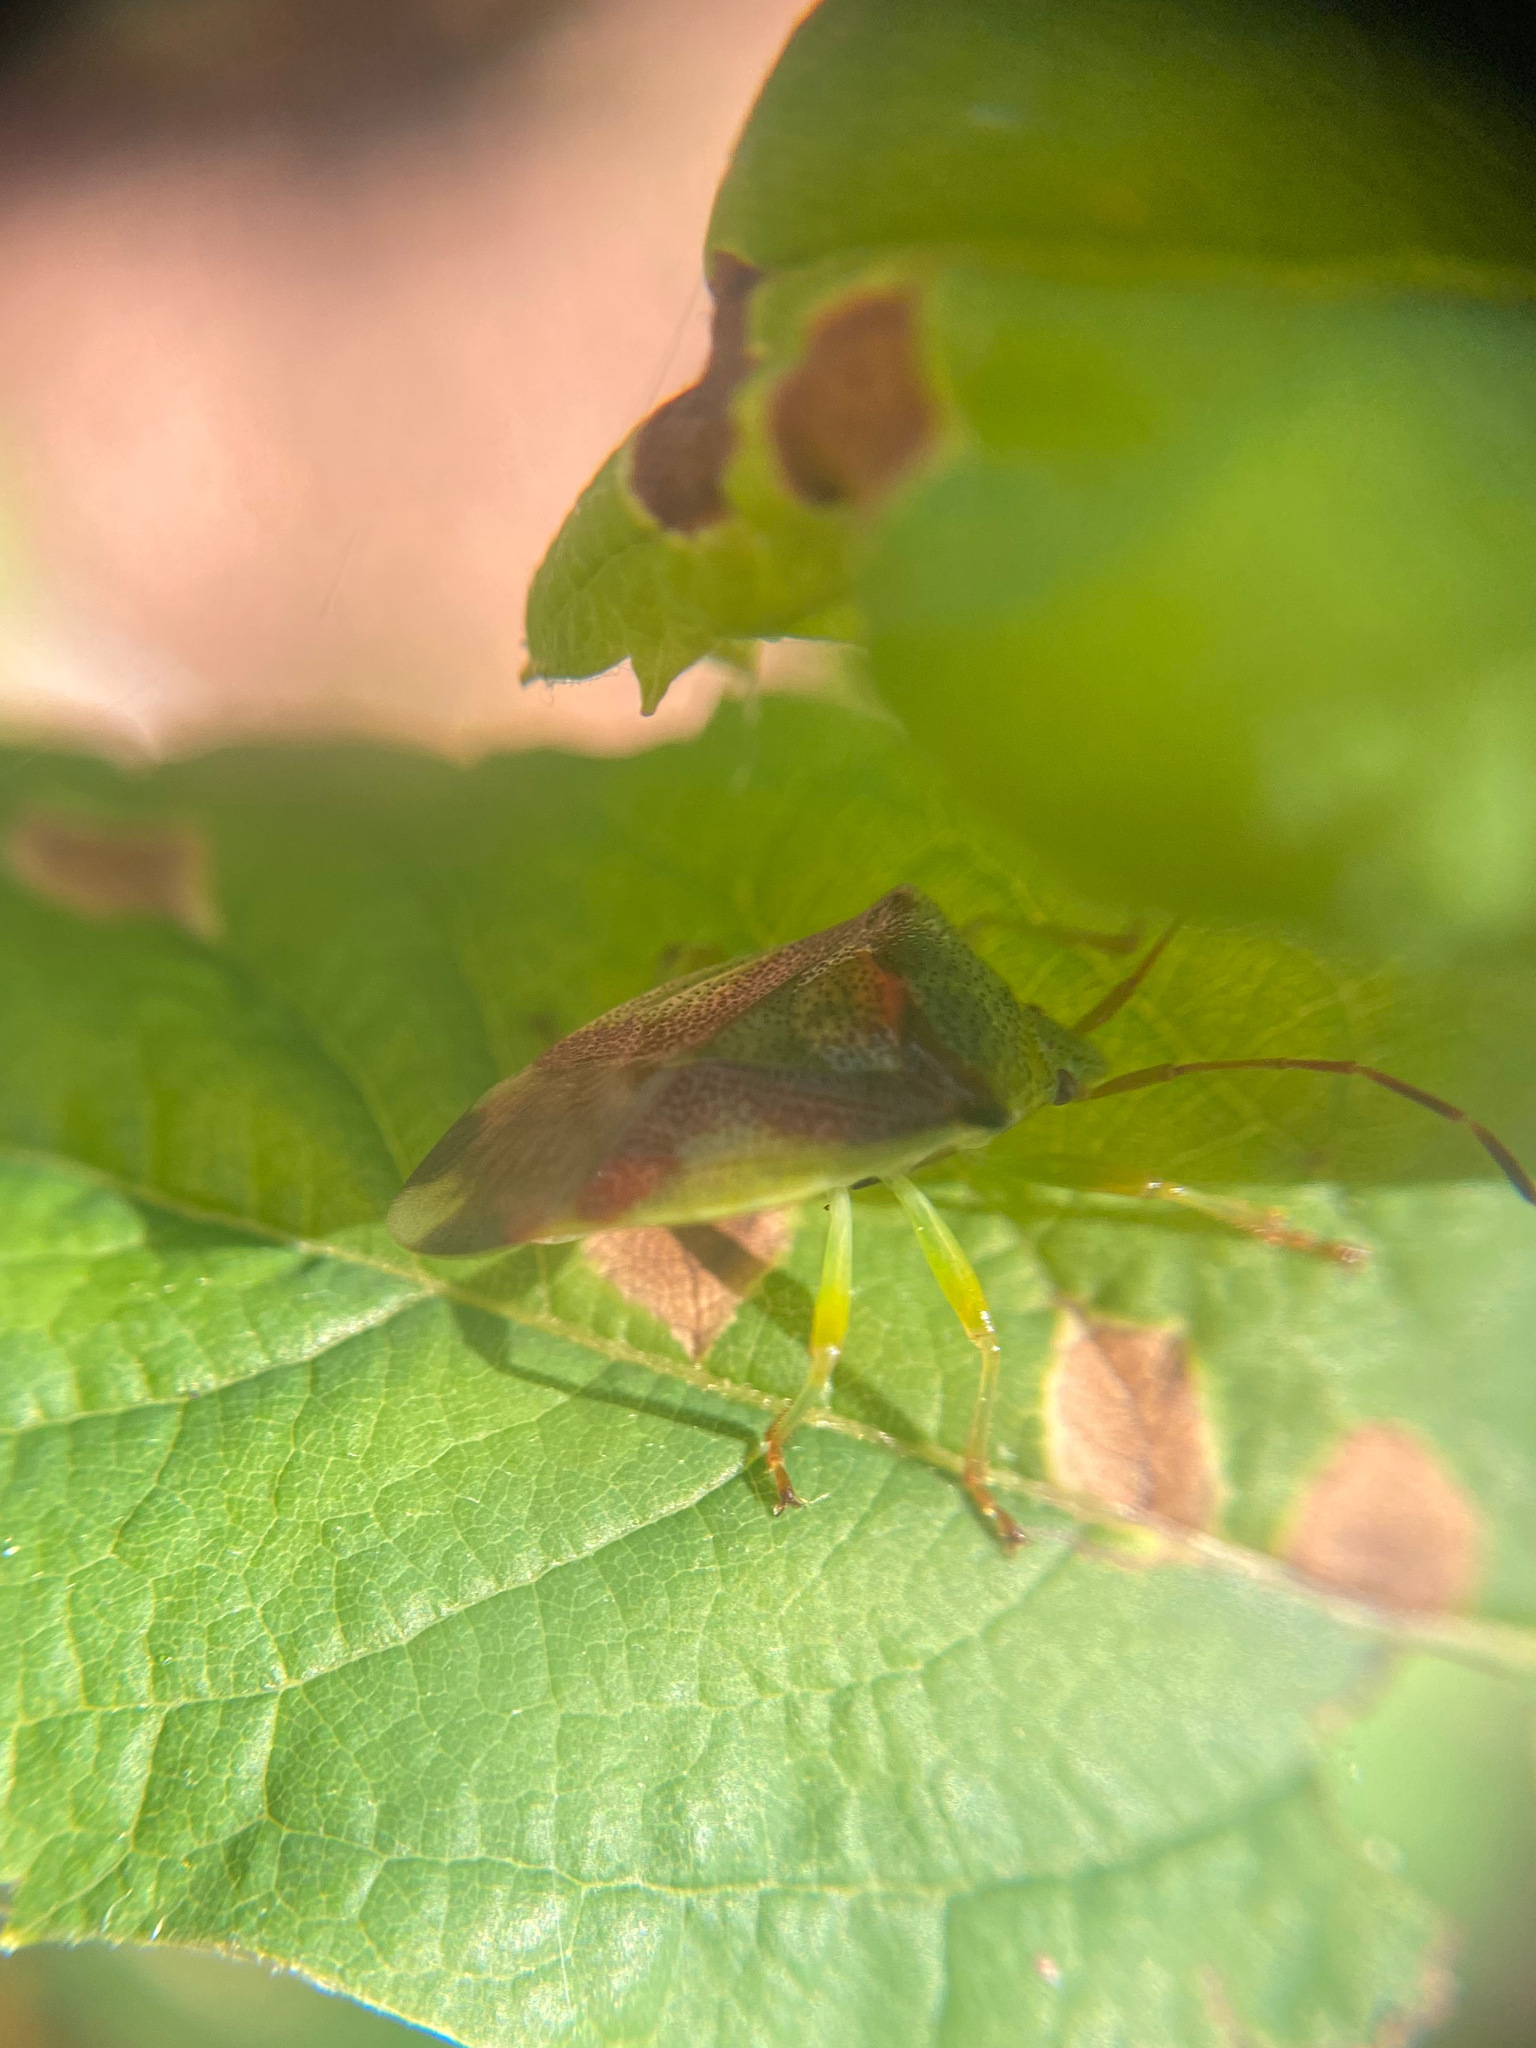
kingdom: Animalia
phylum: Arthropoda
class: Insecta
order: Hemiptera
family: Acanthosomatidae
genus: Elasmostethus
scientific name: Elasmostethus cruciatus
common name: Red-cross shield bug
